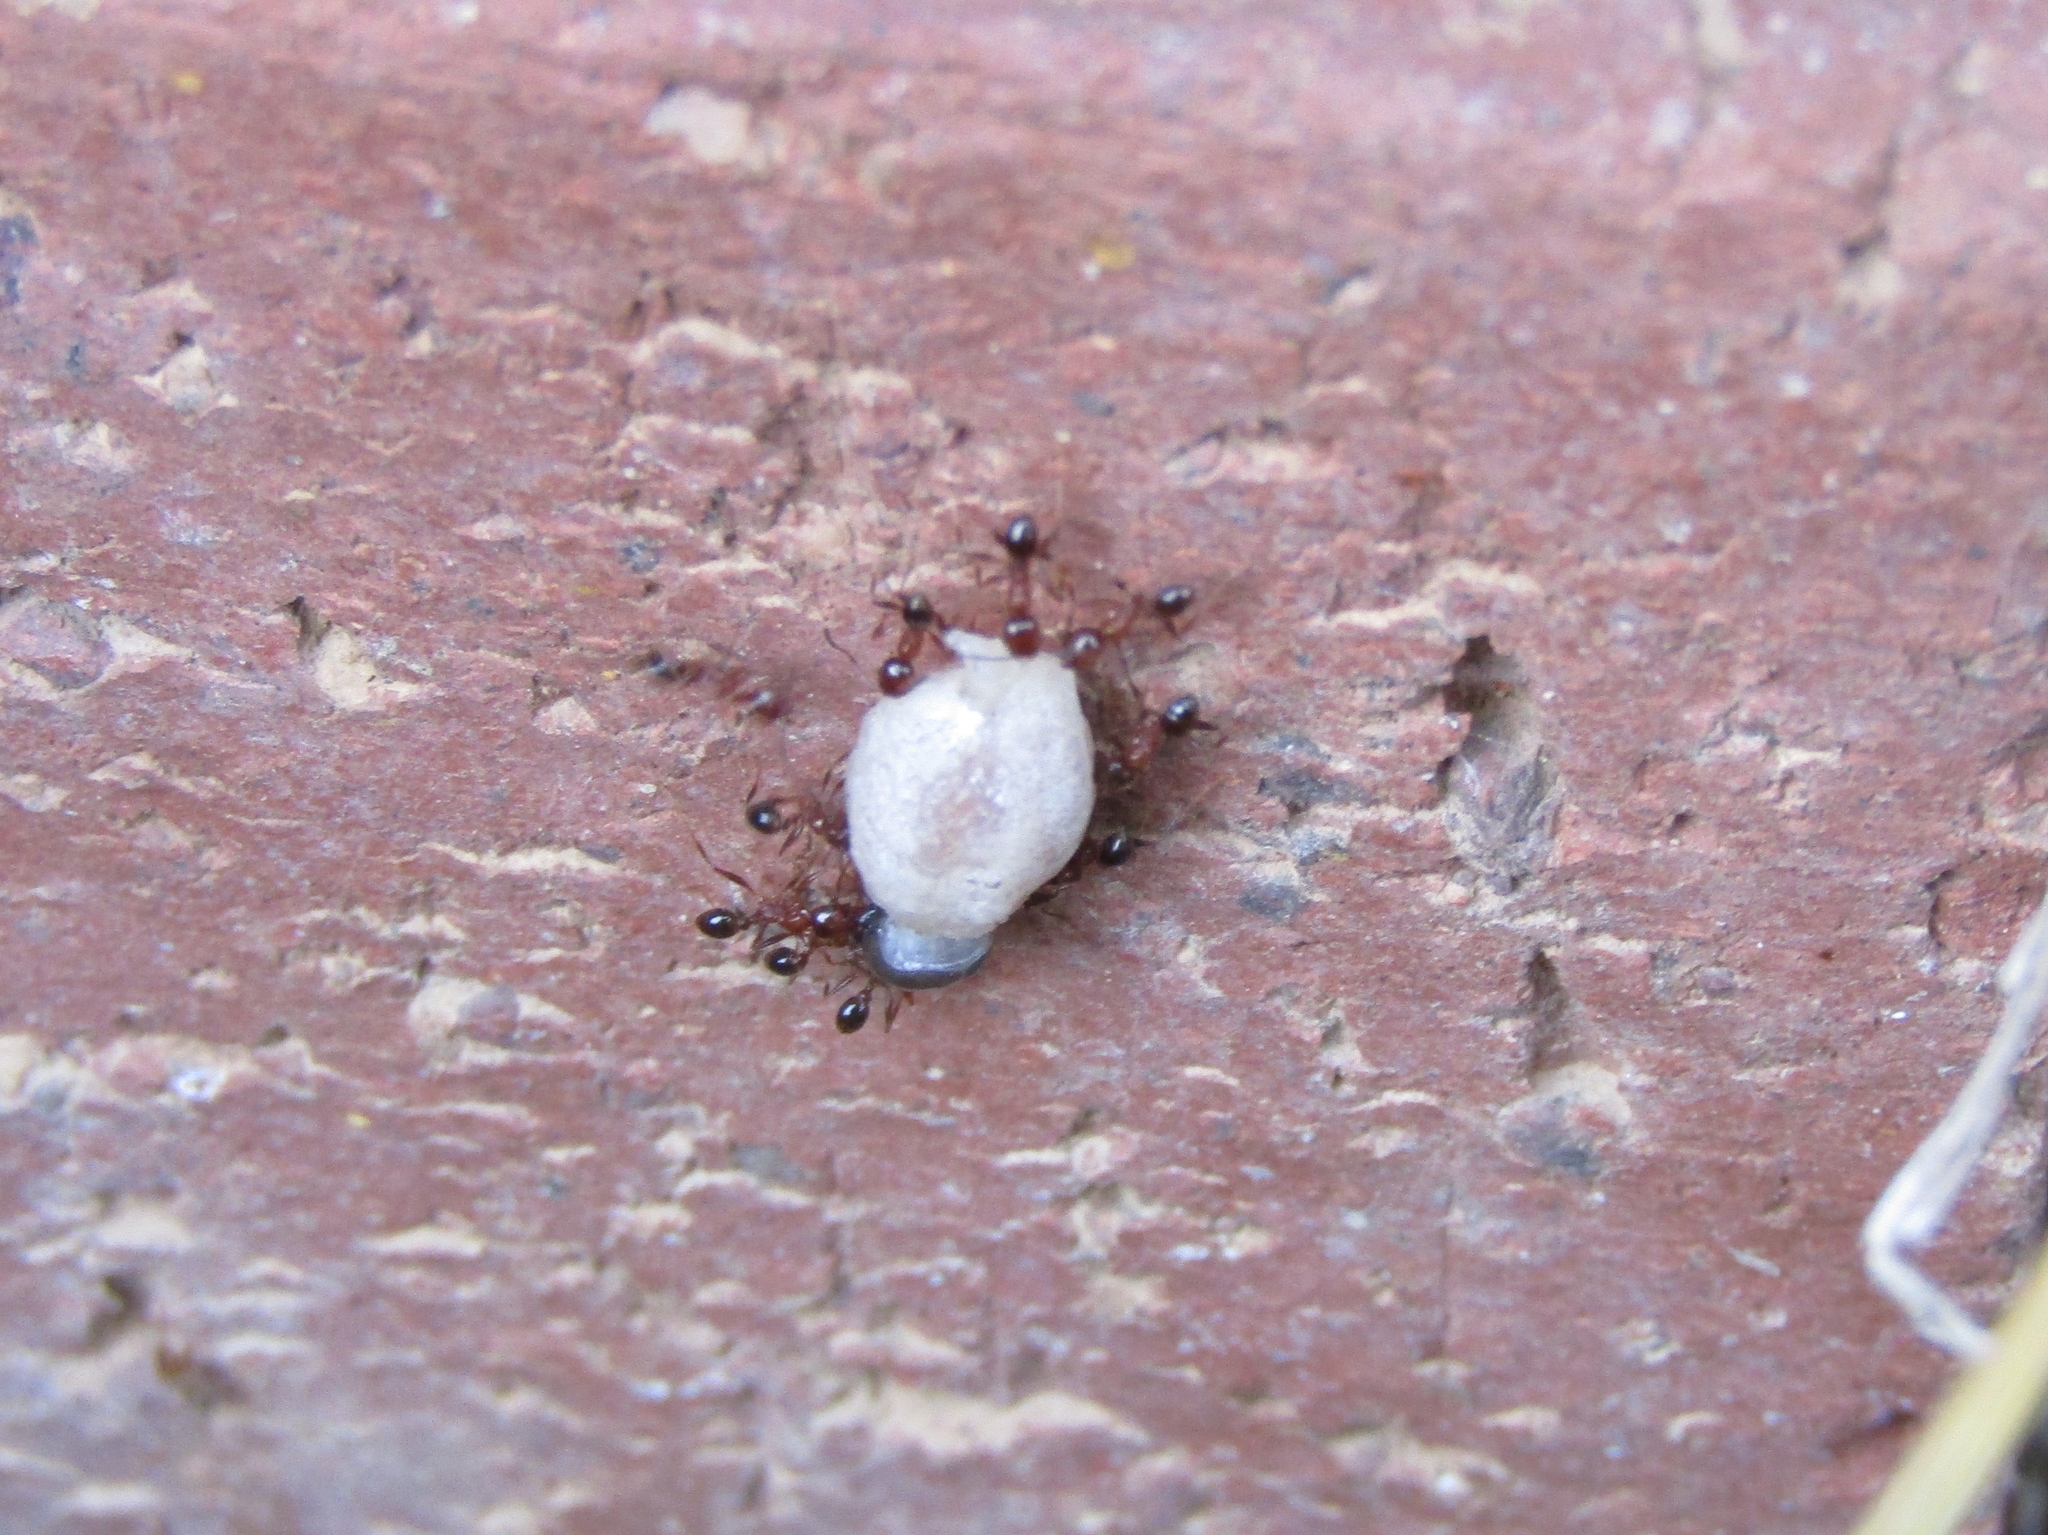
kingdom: Animalia
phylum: Arthropoda
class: Insecta
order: Hymenoptera
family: Formicidae
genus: Pheidole
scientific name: Pheidole dentata
